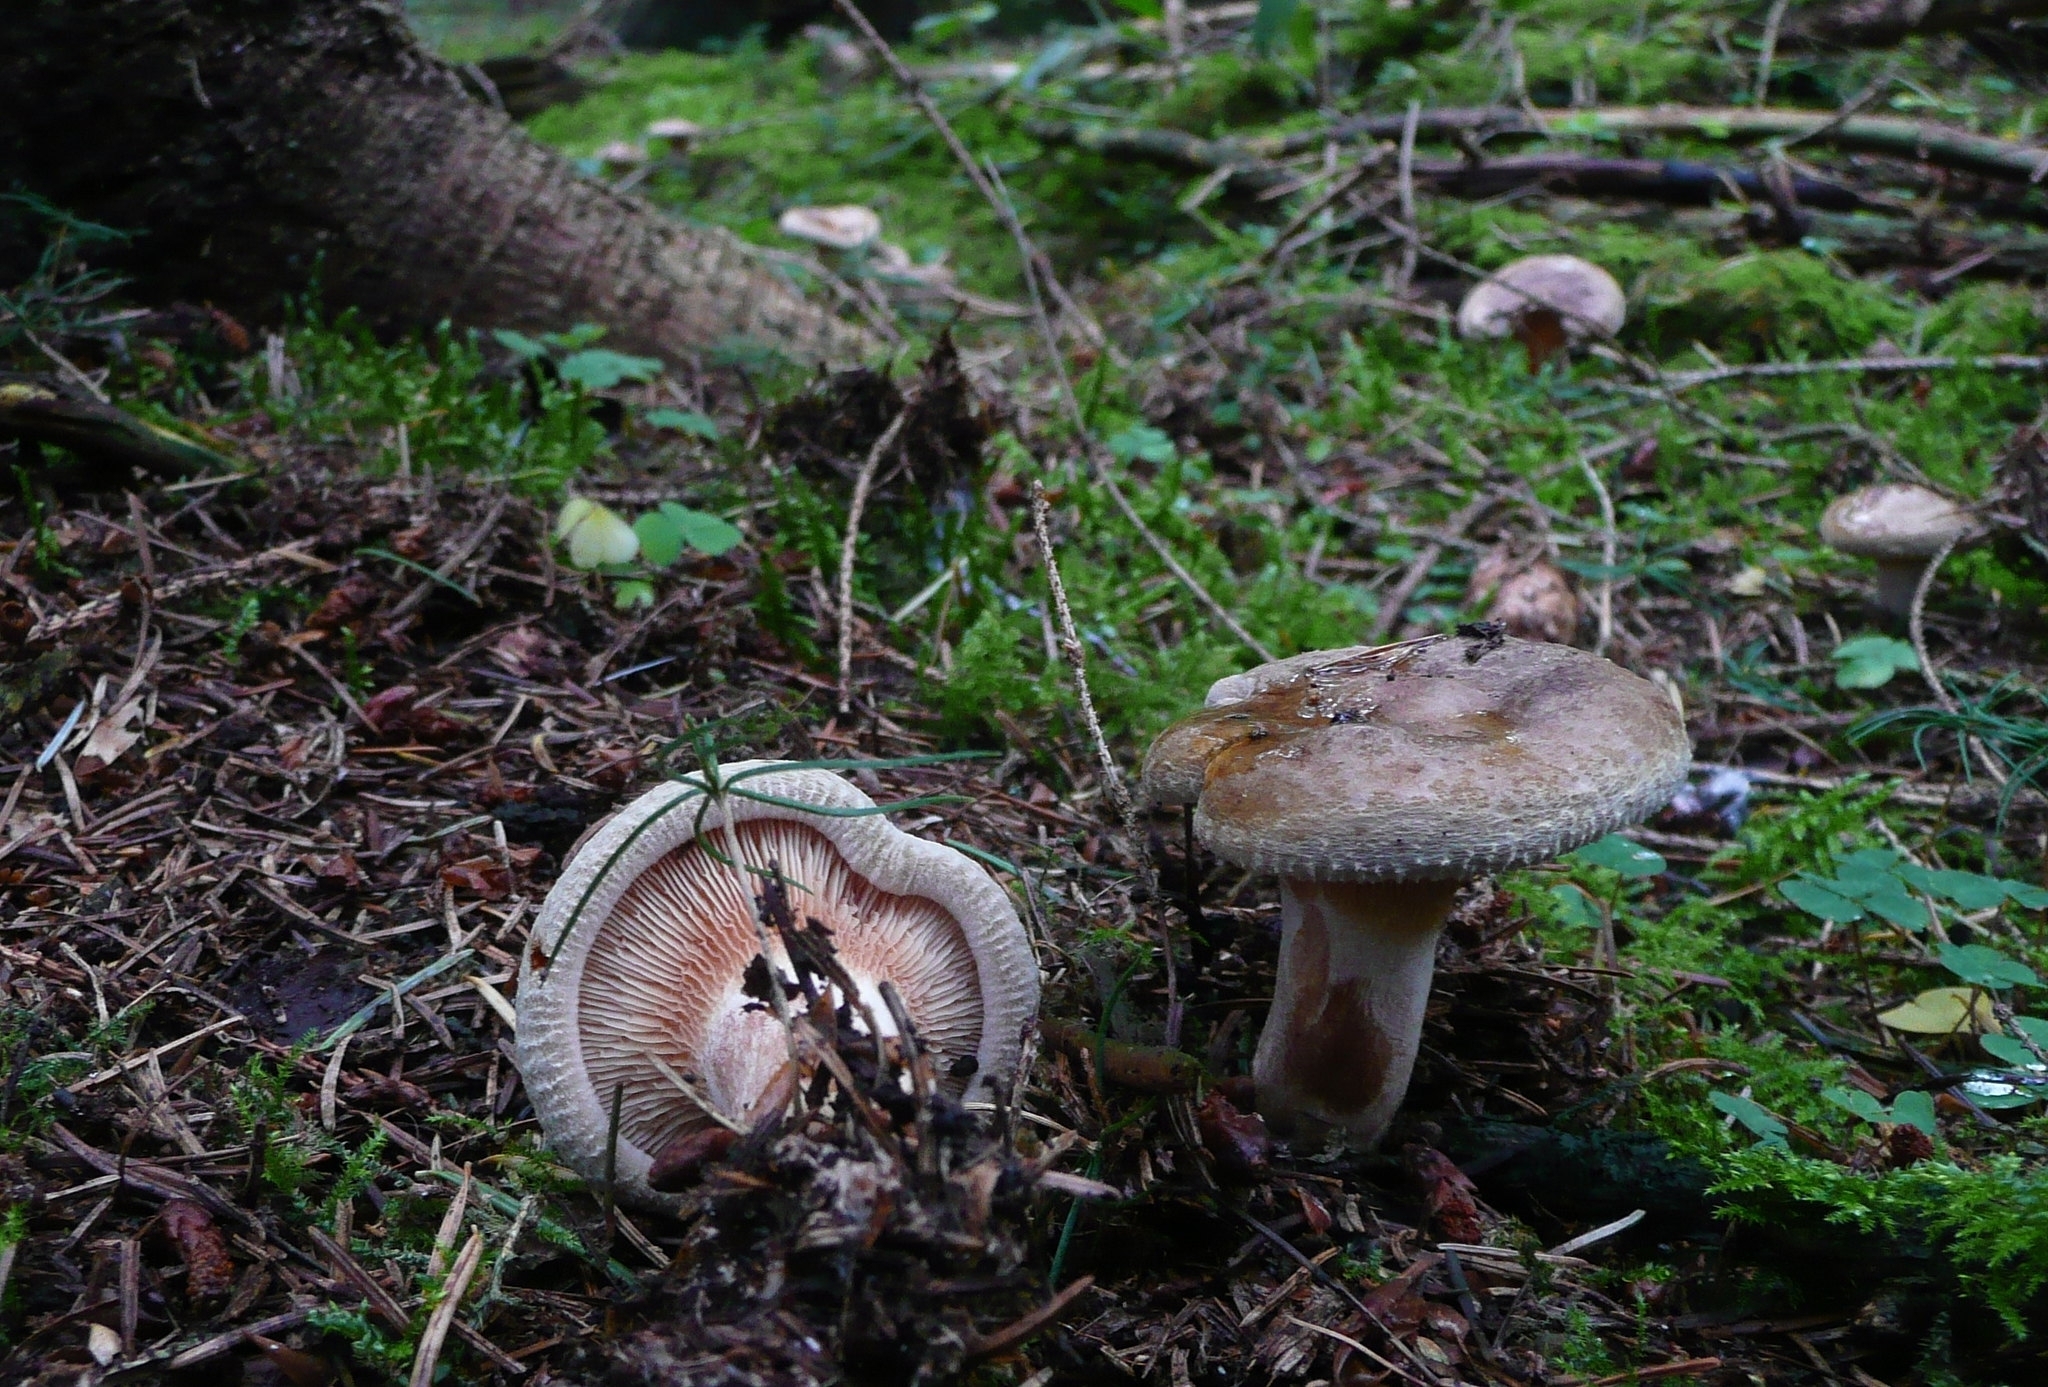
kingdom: Fungi
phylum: Basidiomycota
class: Agaricomycetes
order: Boletales
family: Paxillaceae
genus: Paxillus
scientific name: Paxillus involutus
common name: Brown roll rim
